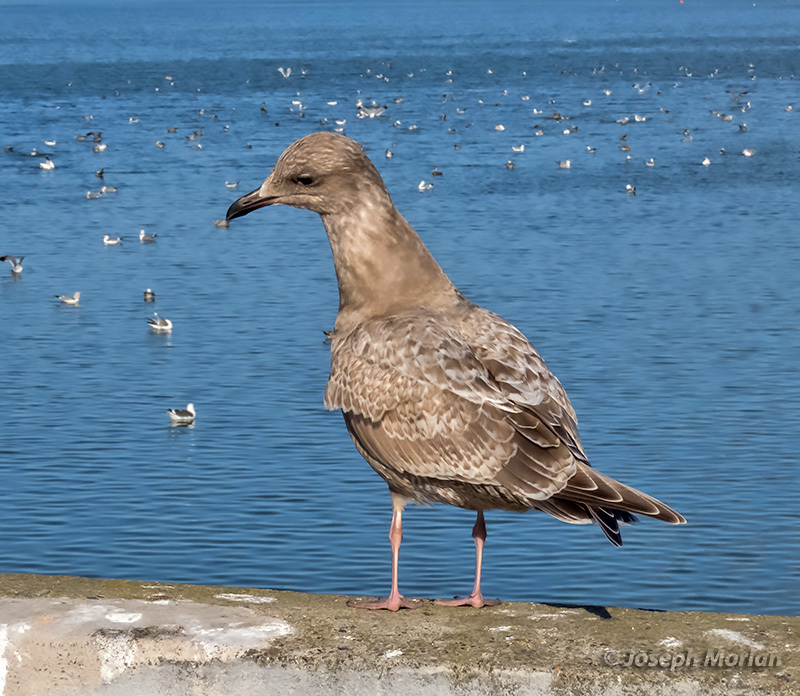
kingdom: Animalia
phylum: Chordata
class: Aves
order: Charadriiformes
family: Laridae
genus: Larus
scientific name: Larus glaucoides
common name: Iceland gull
